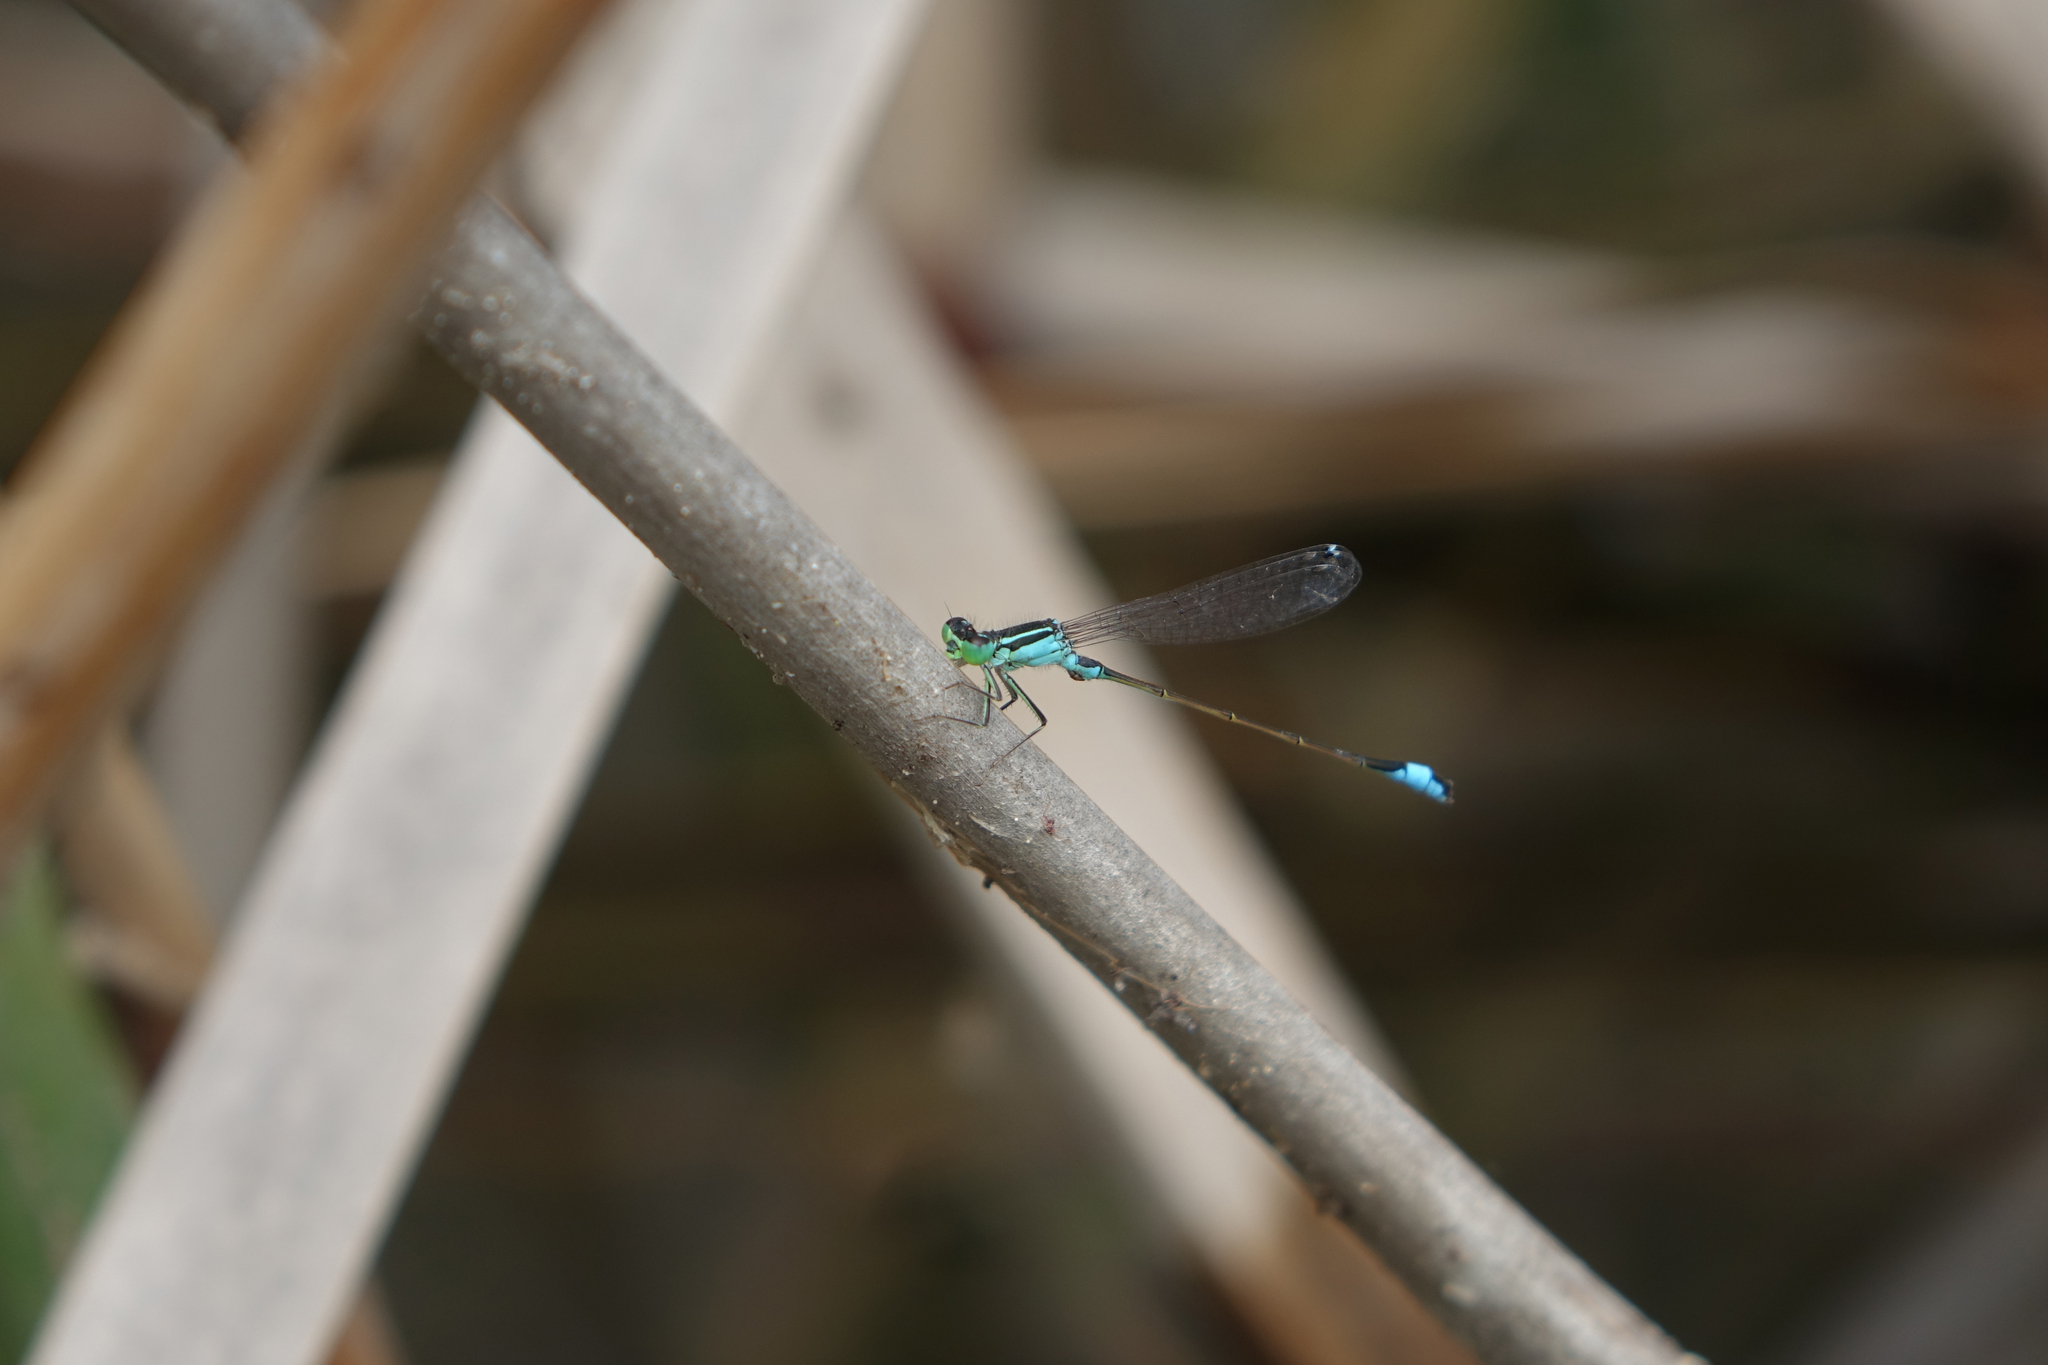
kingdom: Animalia
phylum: Arthropoda
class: Insecta
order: Odonata
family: Coenagrionidae
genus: Ischnura
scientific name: Ischnura elegans
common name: Blue-tailed damselfly
